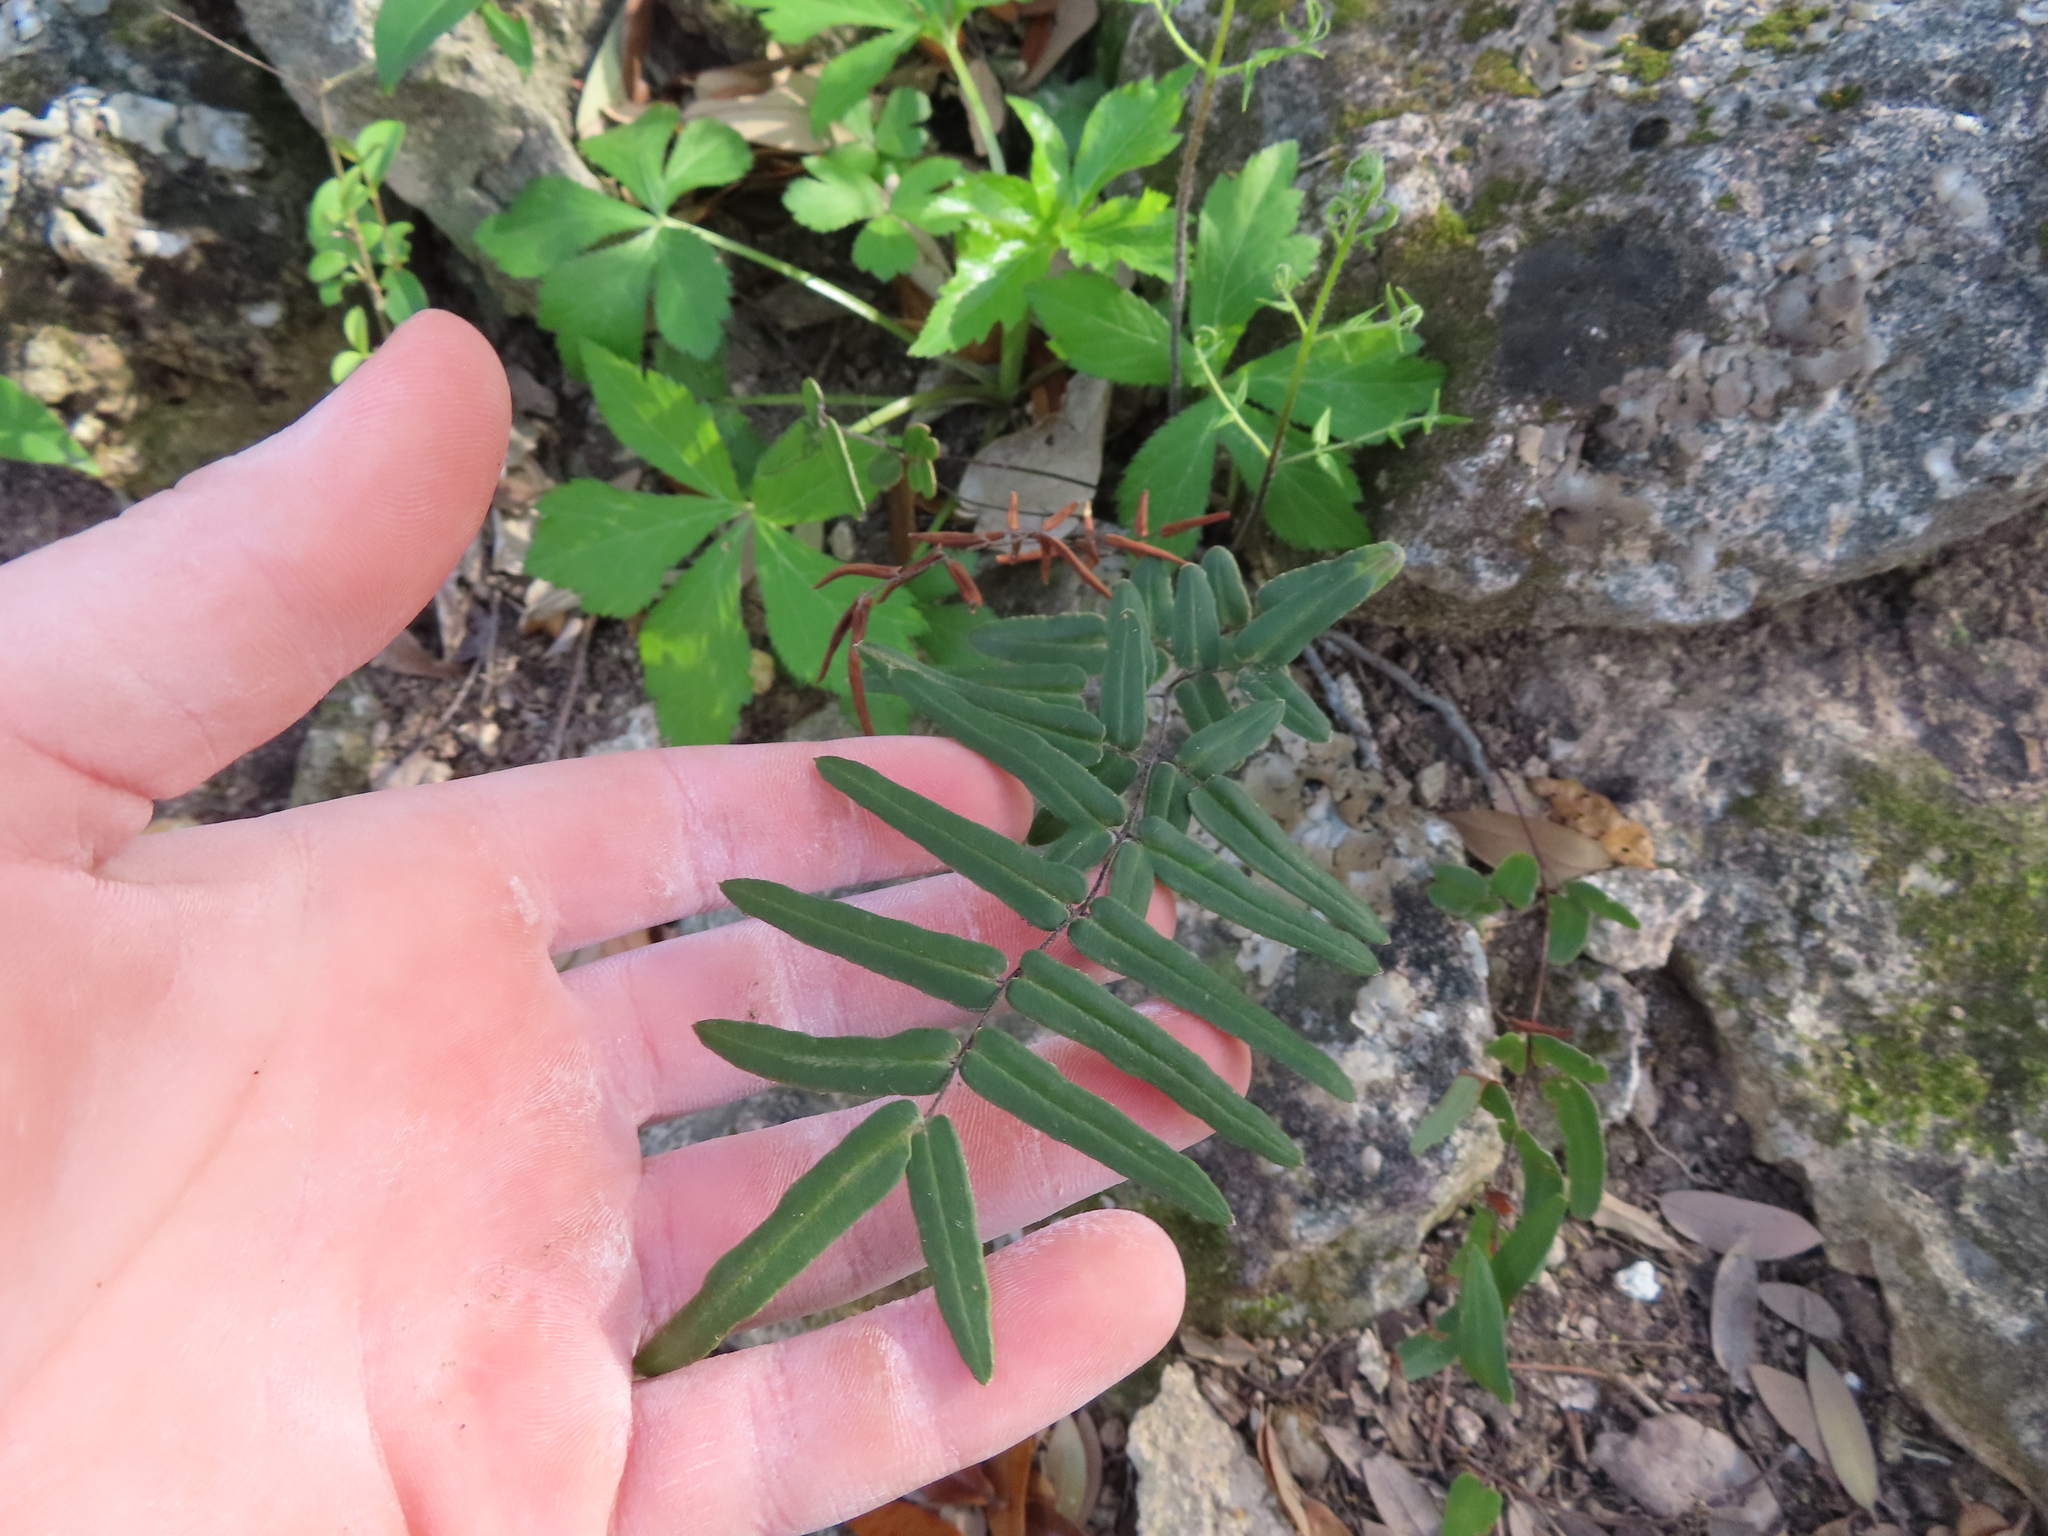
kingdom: Plantae
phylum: Tracheophyta
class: Polypodiopsida
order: Polypodiales
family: Pteridaceae
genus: Pellaea
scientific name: Pellaea atropurpurea
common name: Hairy cliffbrake
